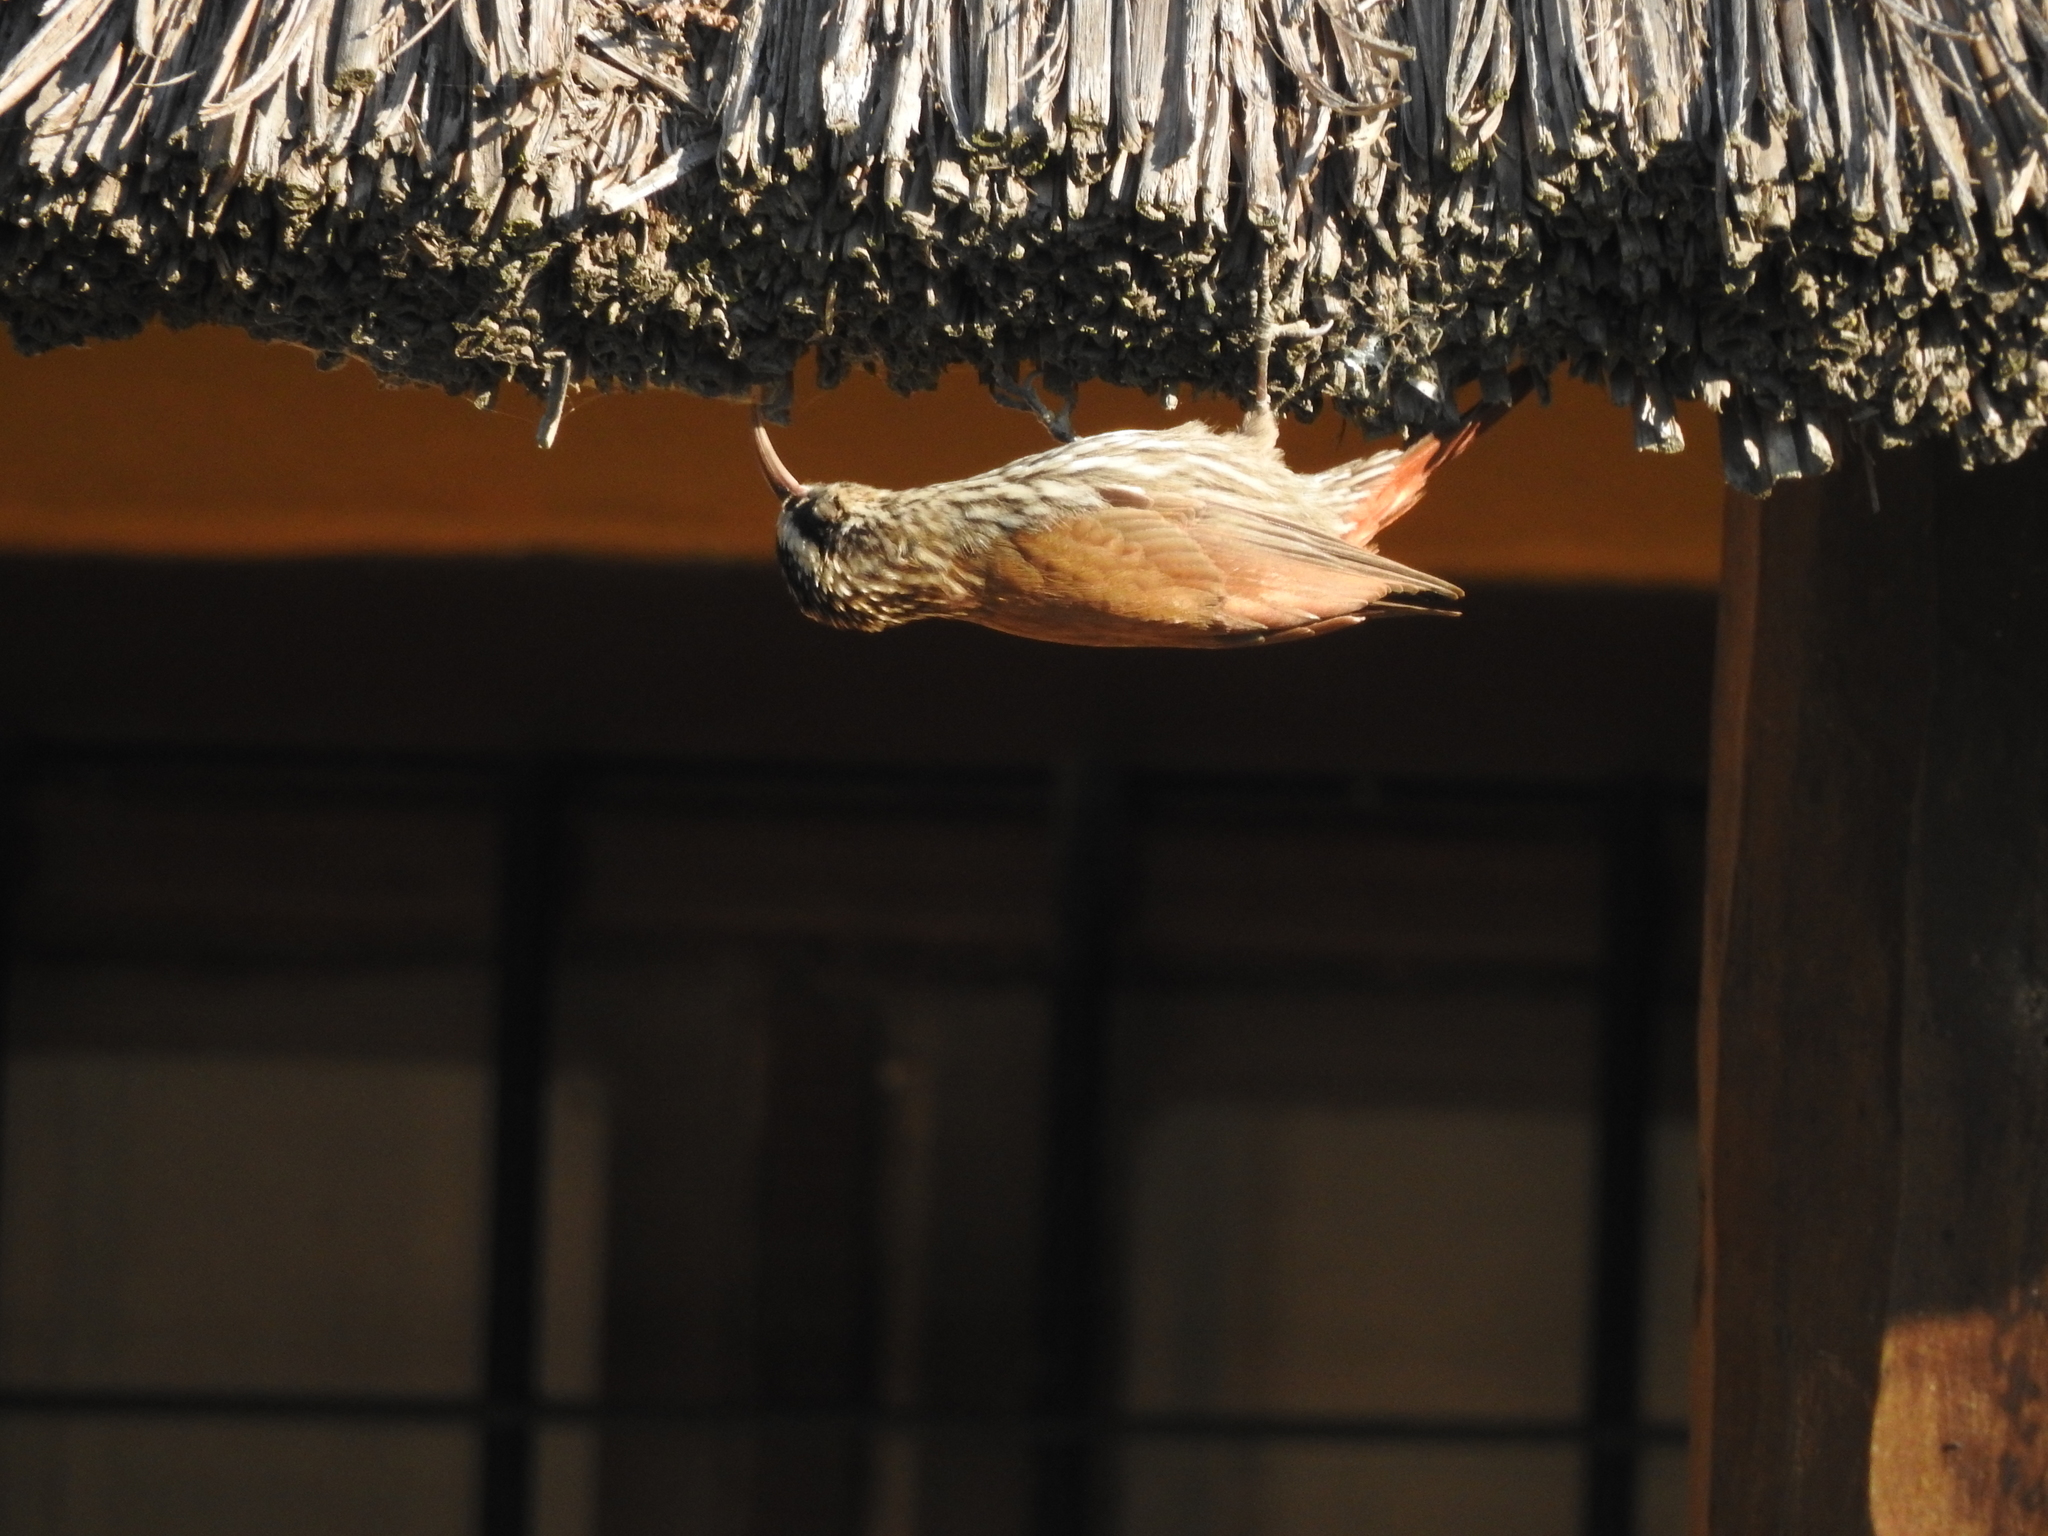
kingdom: Animalia
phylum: Chordata
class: Aves
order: Passeriformes
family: Furnariidae
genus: Lepidocolaptes
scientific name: Lepidocolaptes angustirostris
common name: Narrow-billed woodcreeper
